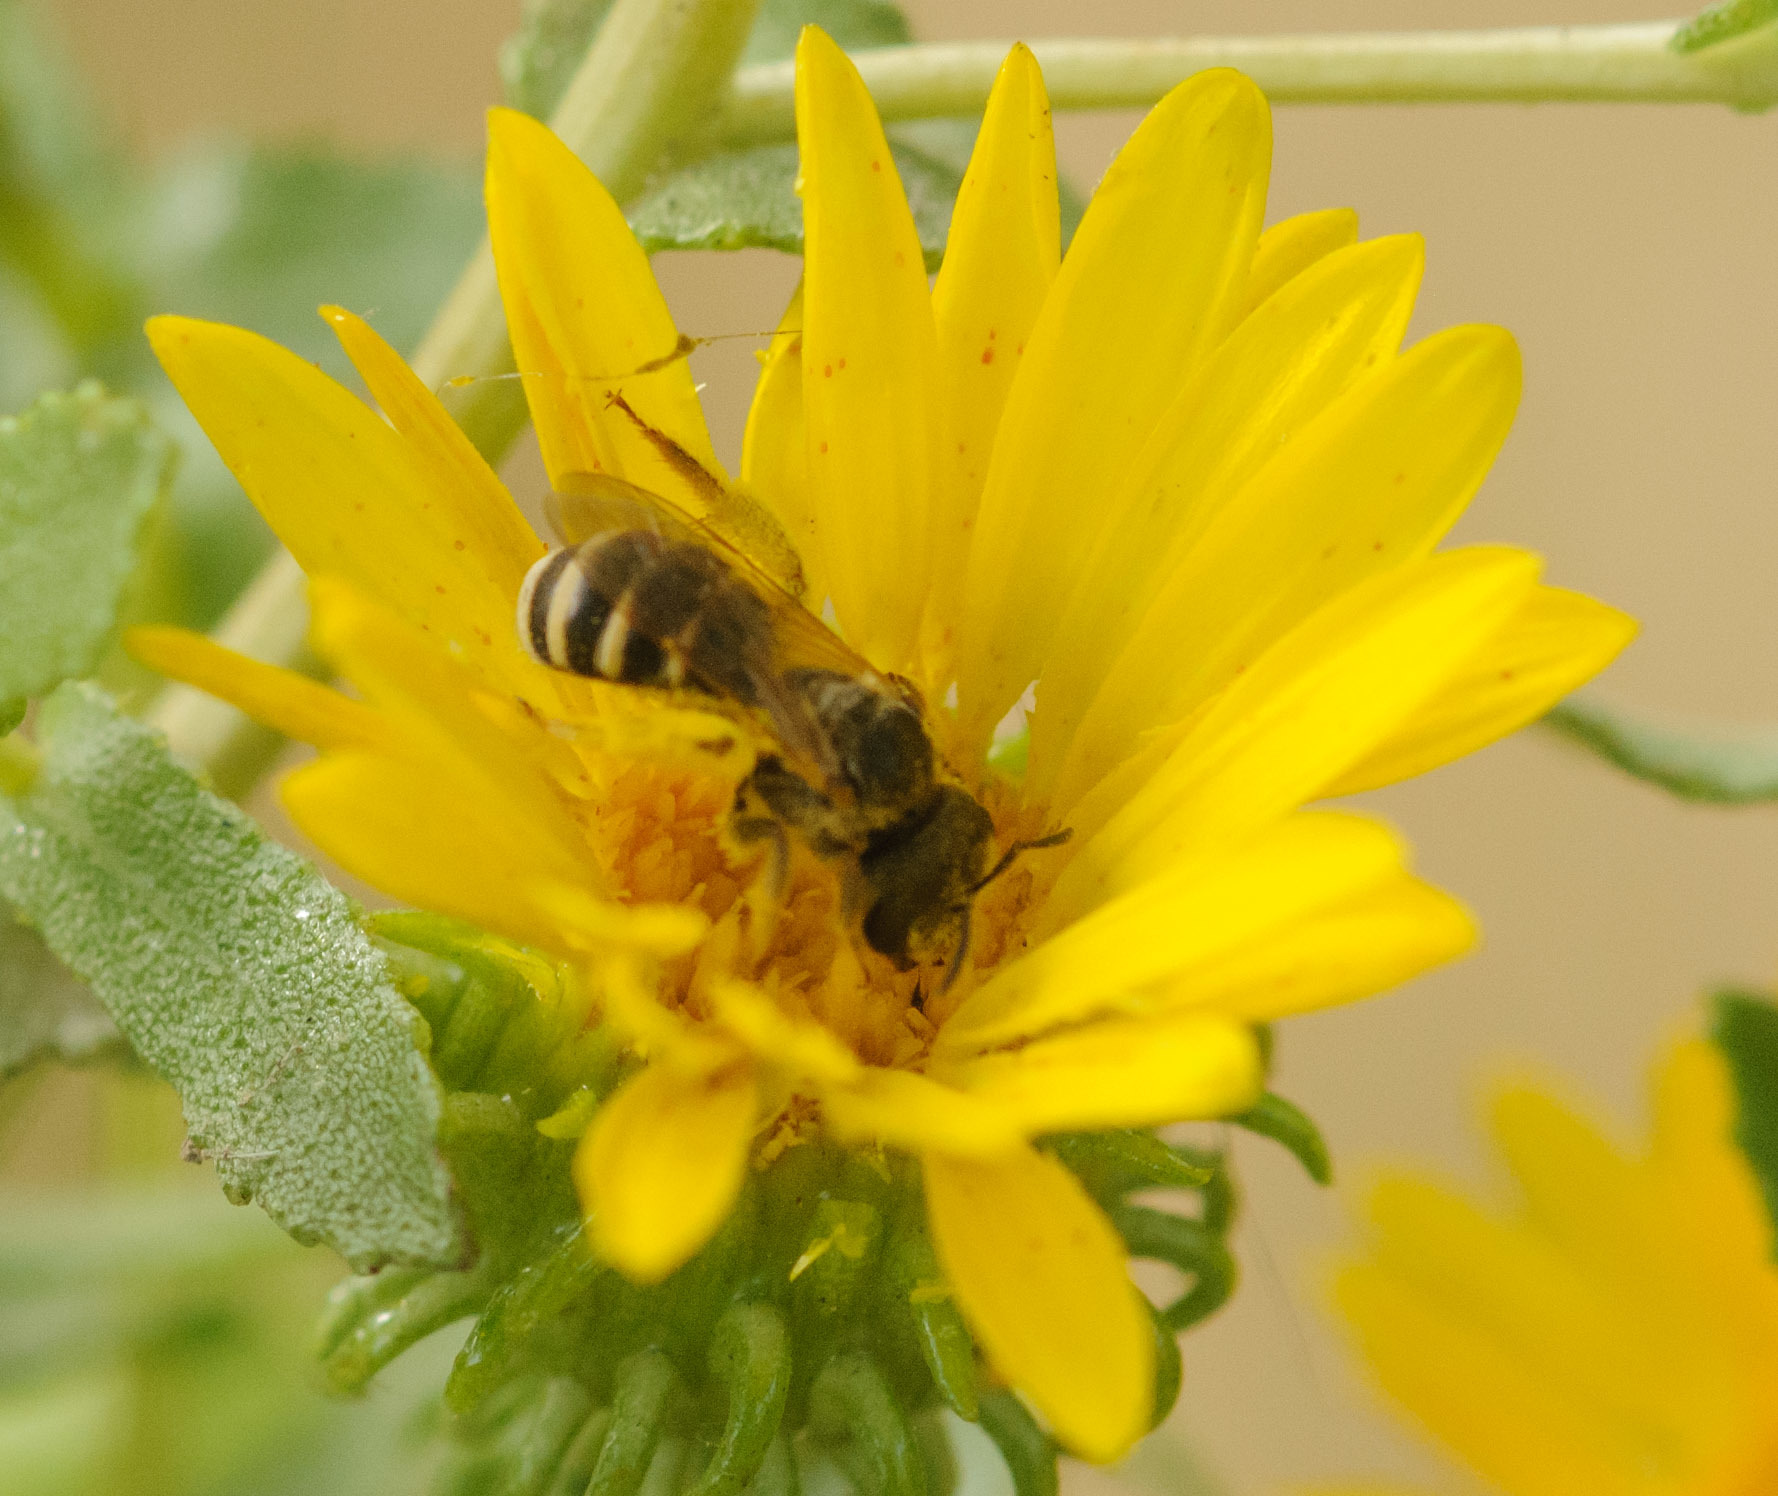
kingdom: Animalia
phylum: Arthropoda
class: Insecta
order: Hymenoptera
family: Halictidae
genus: Halictus
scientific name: Halictus ligatus
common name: Ligated furrow bee
